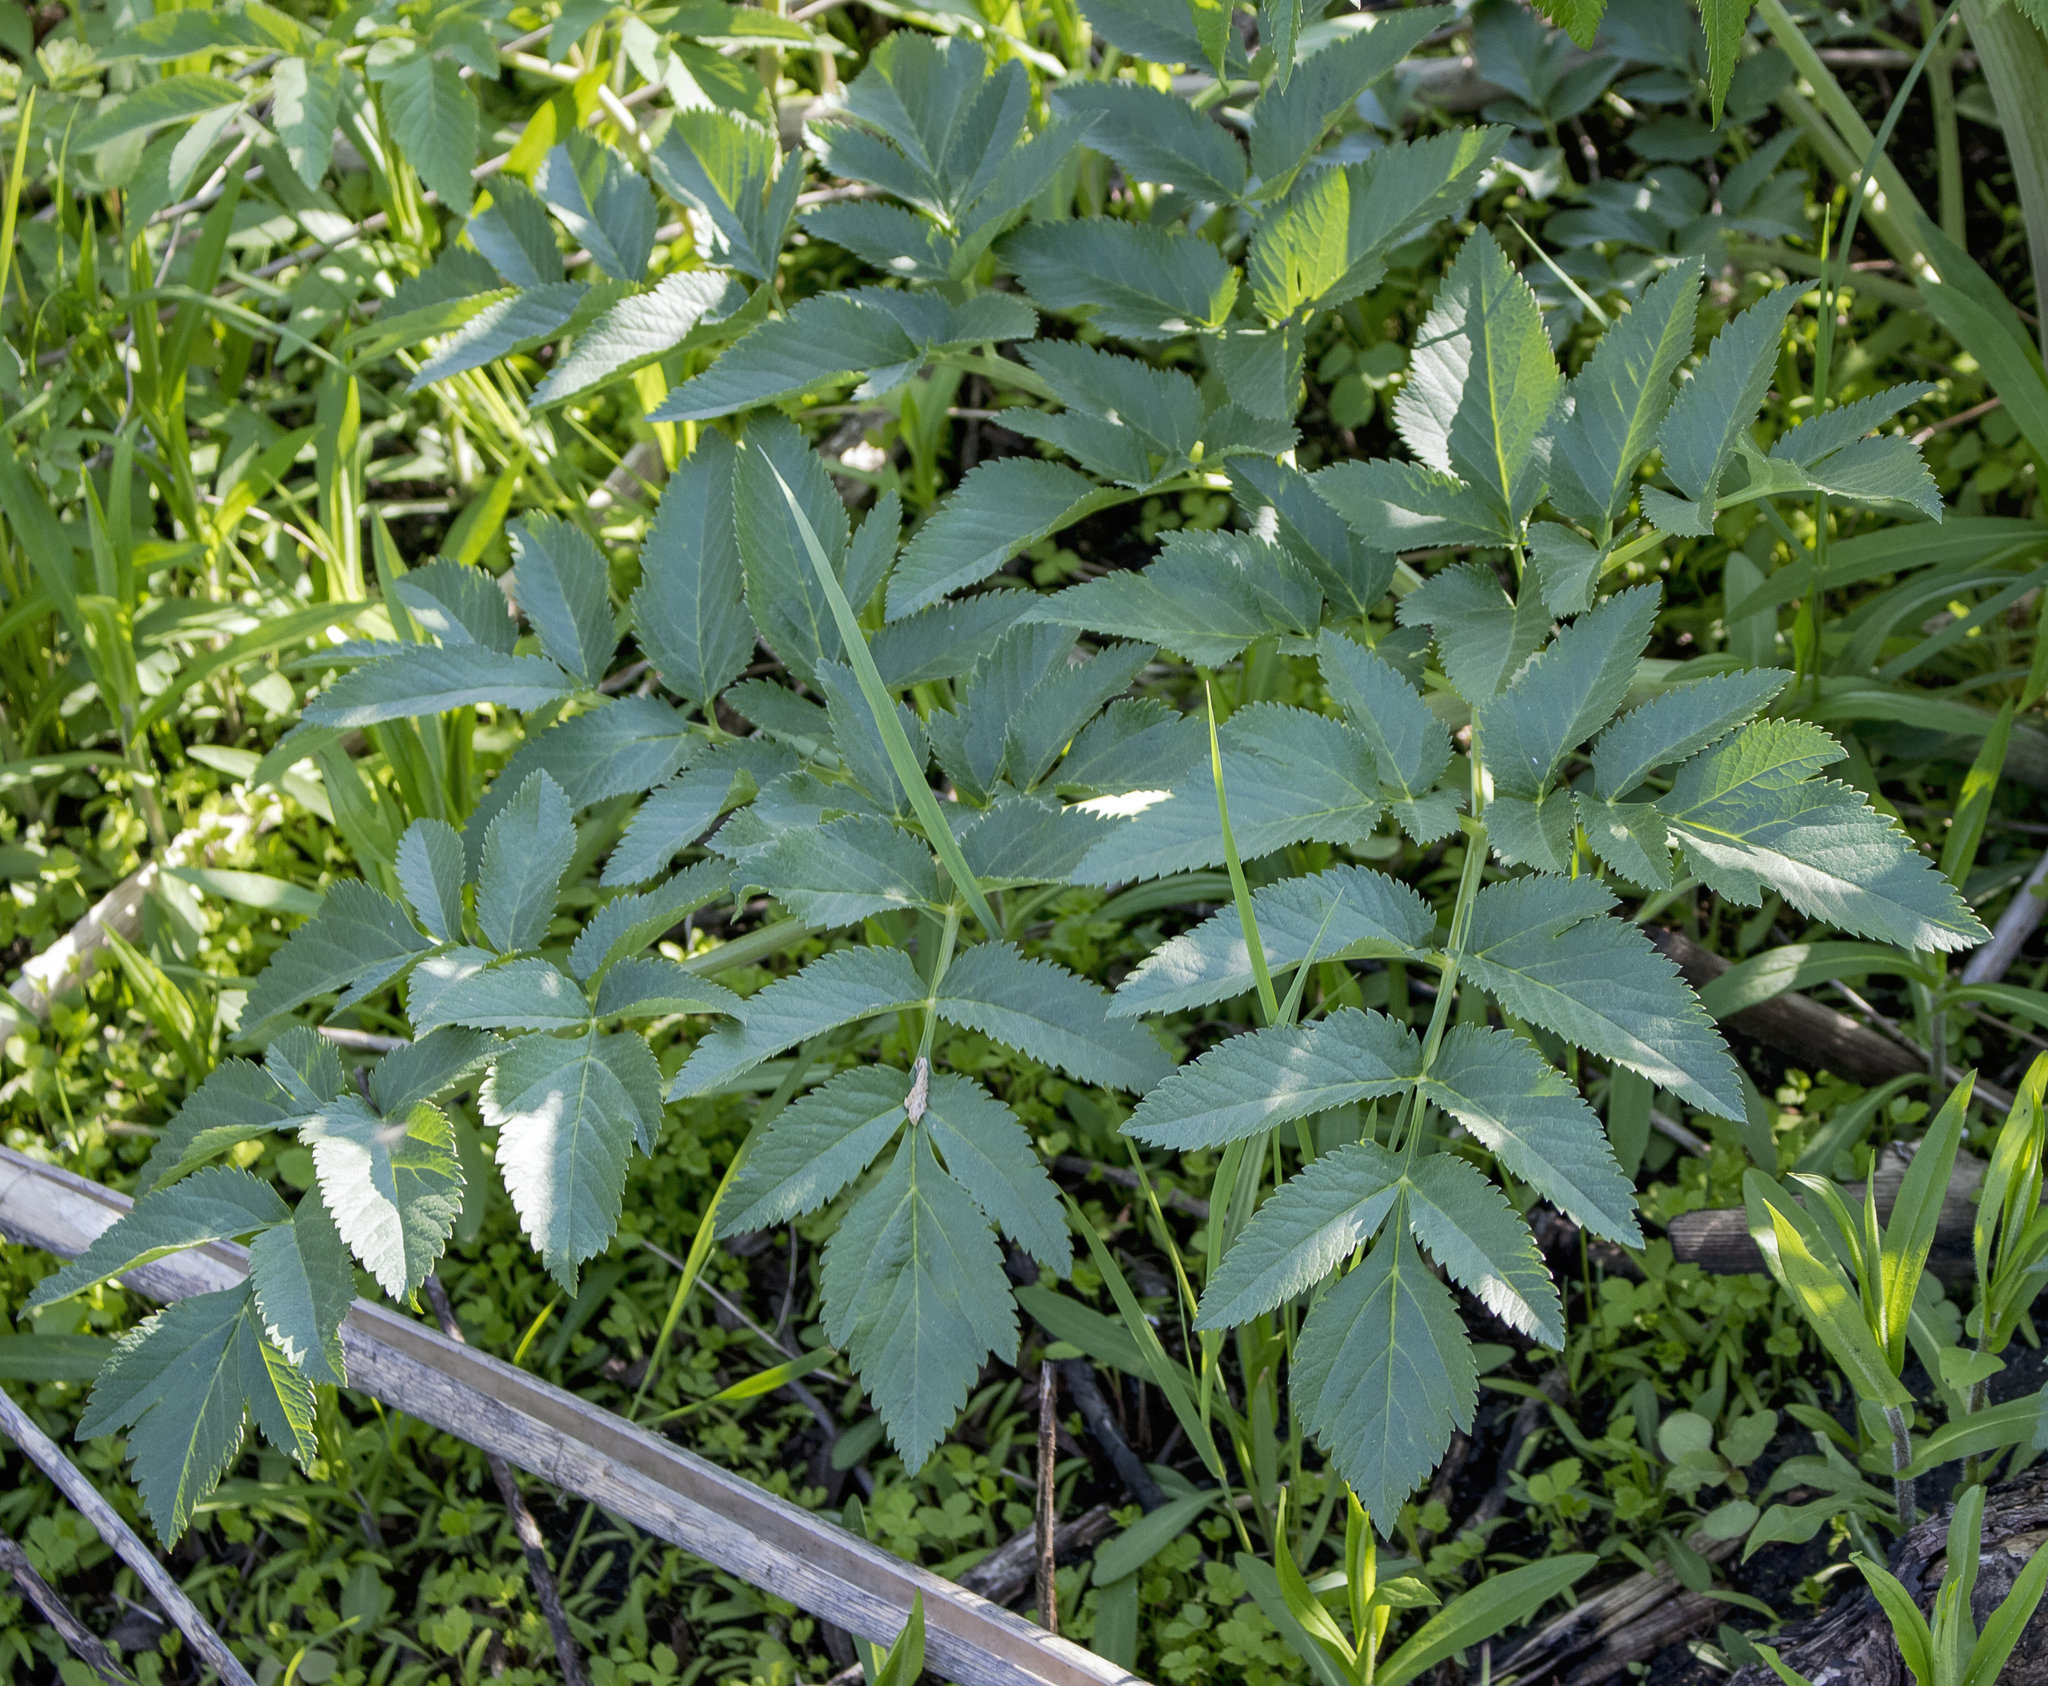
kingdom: Plantae
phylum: Tracheophyta
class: Magnoliopsida
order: Apiales
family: Apiaceae
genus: Angelica
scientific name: Angelica atropurpurea
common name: Great angelica
